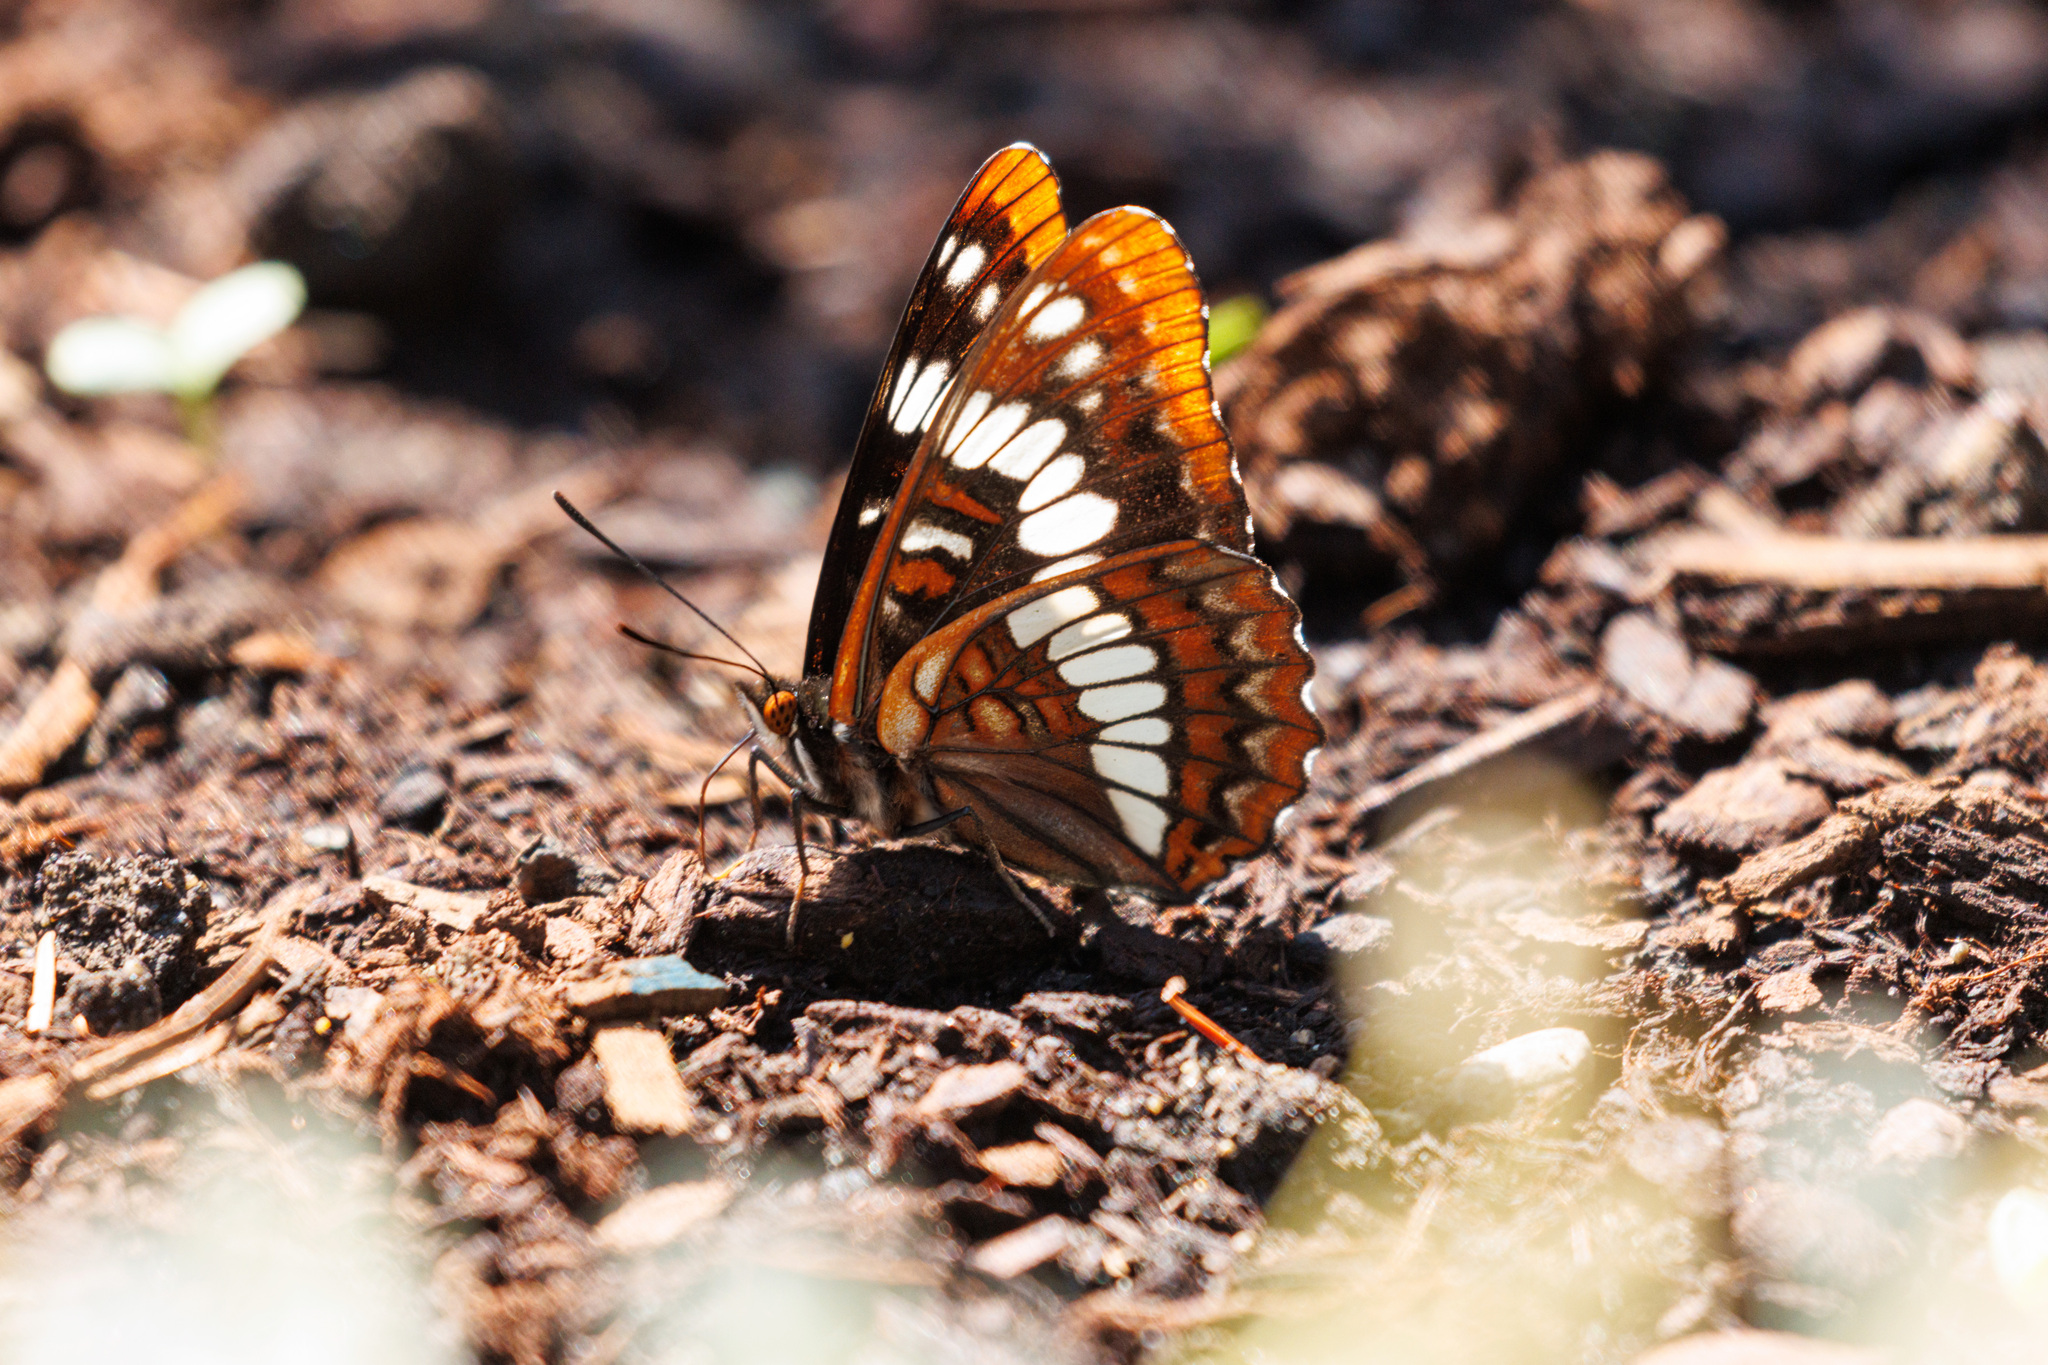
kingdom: Animalia
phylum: Arthropoda
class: Insecta
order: Lepidoptera
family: Nymphalidae
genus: Limenitis
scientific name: Limenitis lorquini
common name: Lorquin's admiral
